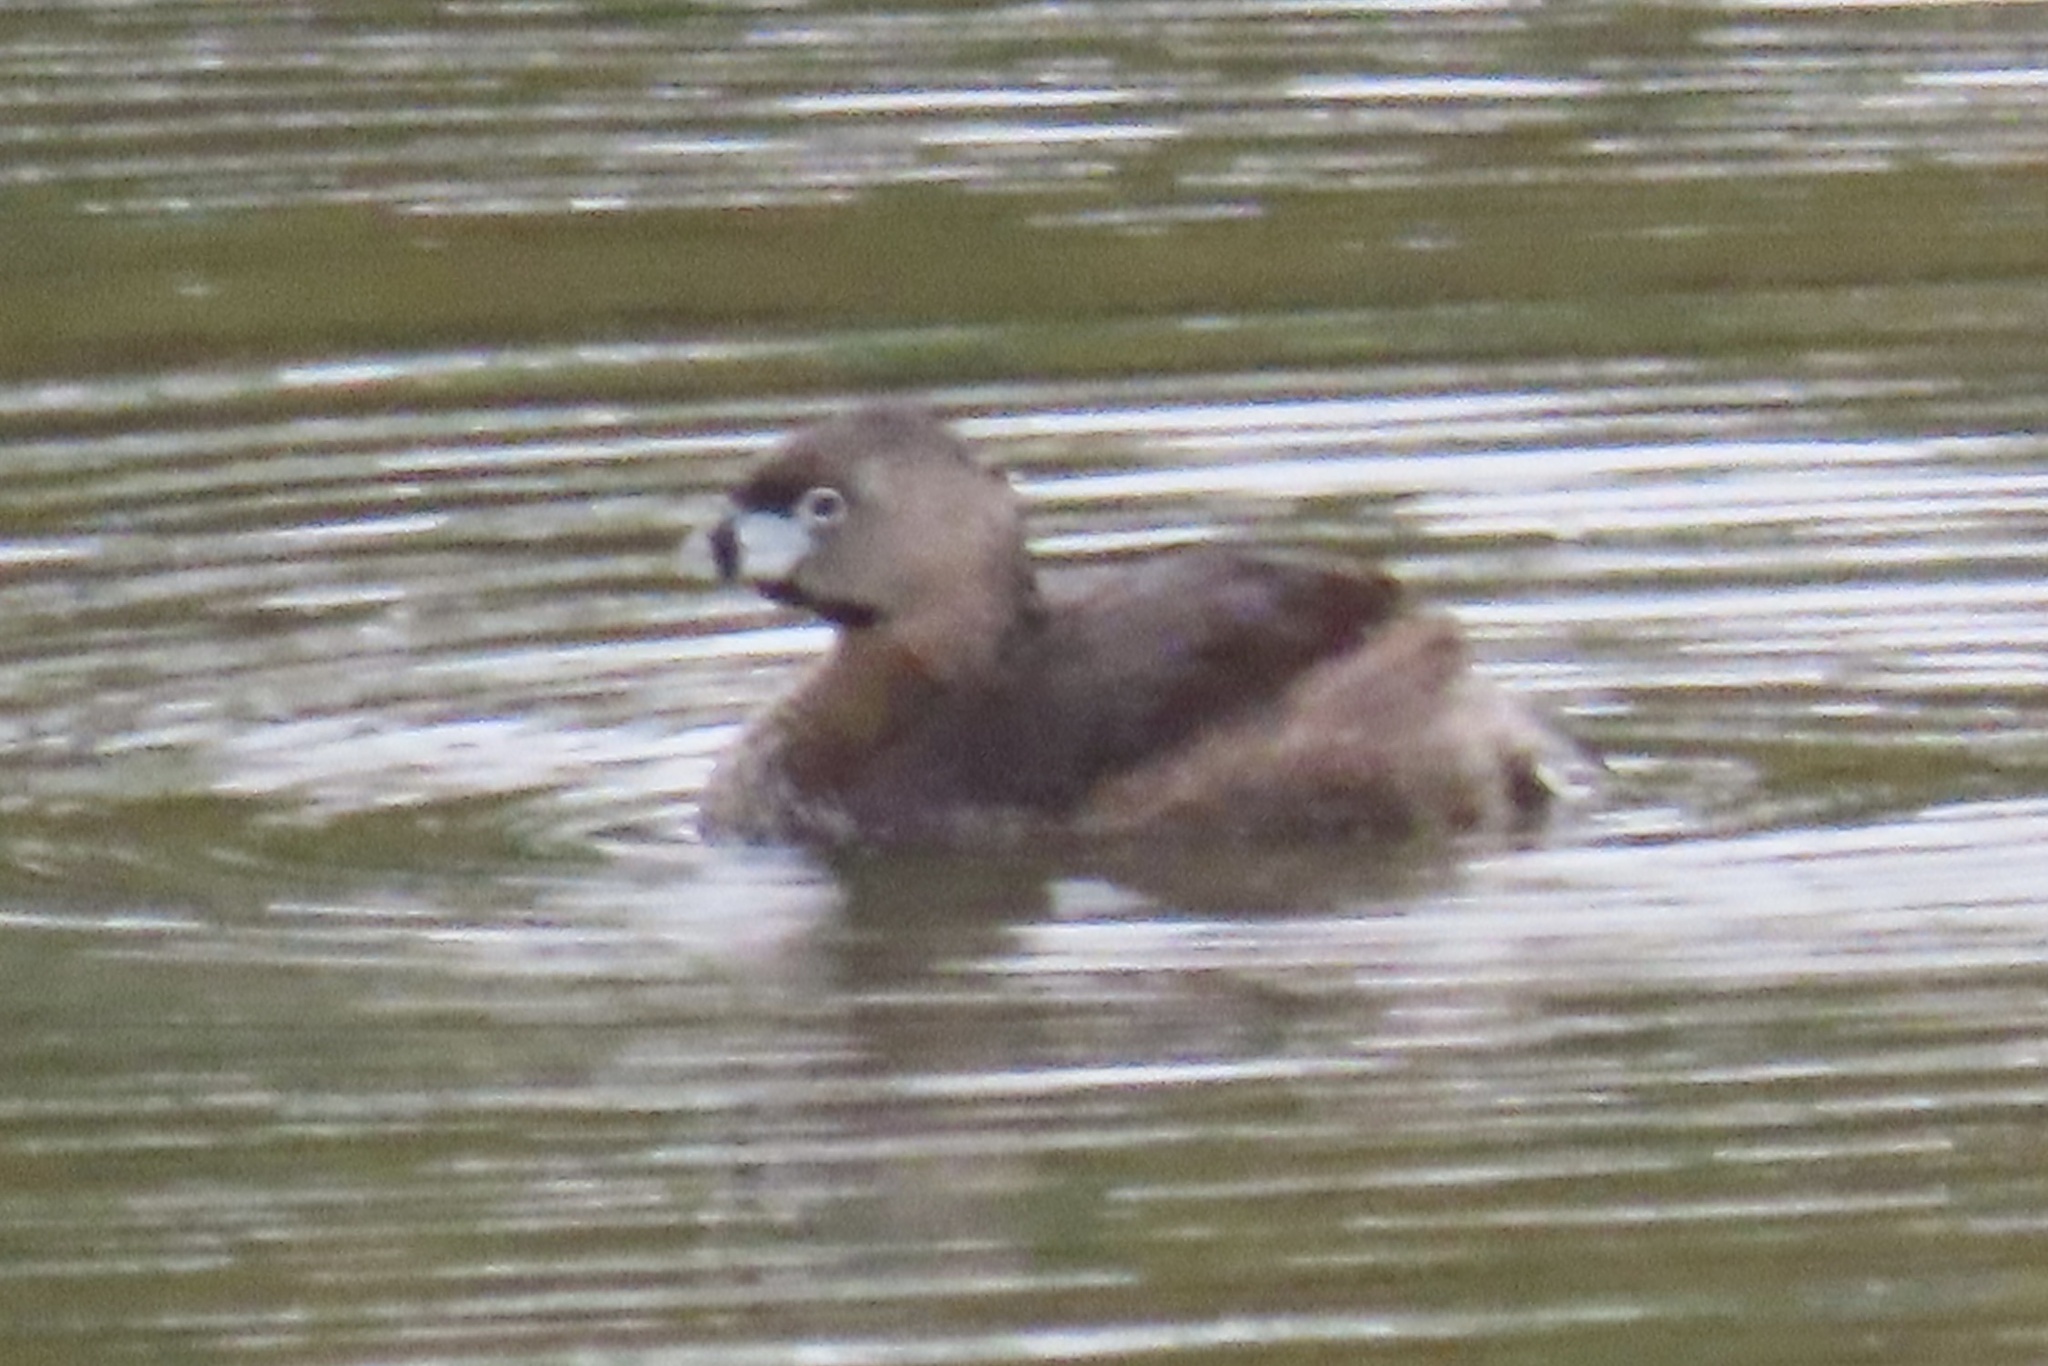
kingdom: Animalia
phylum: Chordata
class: Aves
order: Podicipediformes
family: Podicipedidae
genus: Podilymbus
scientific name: Podilymbus podiceps
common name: Pied-billed grebe
